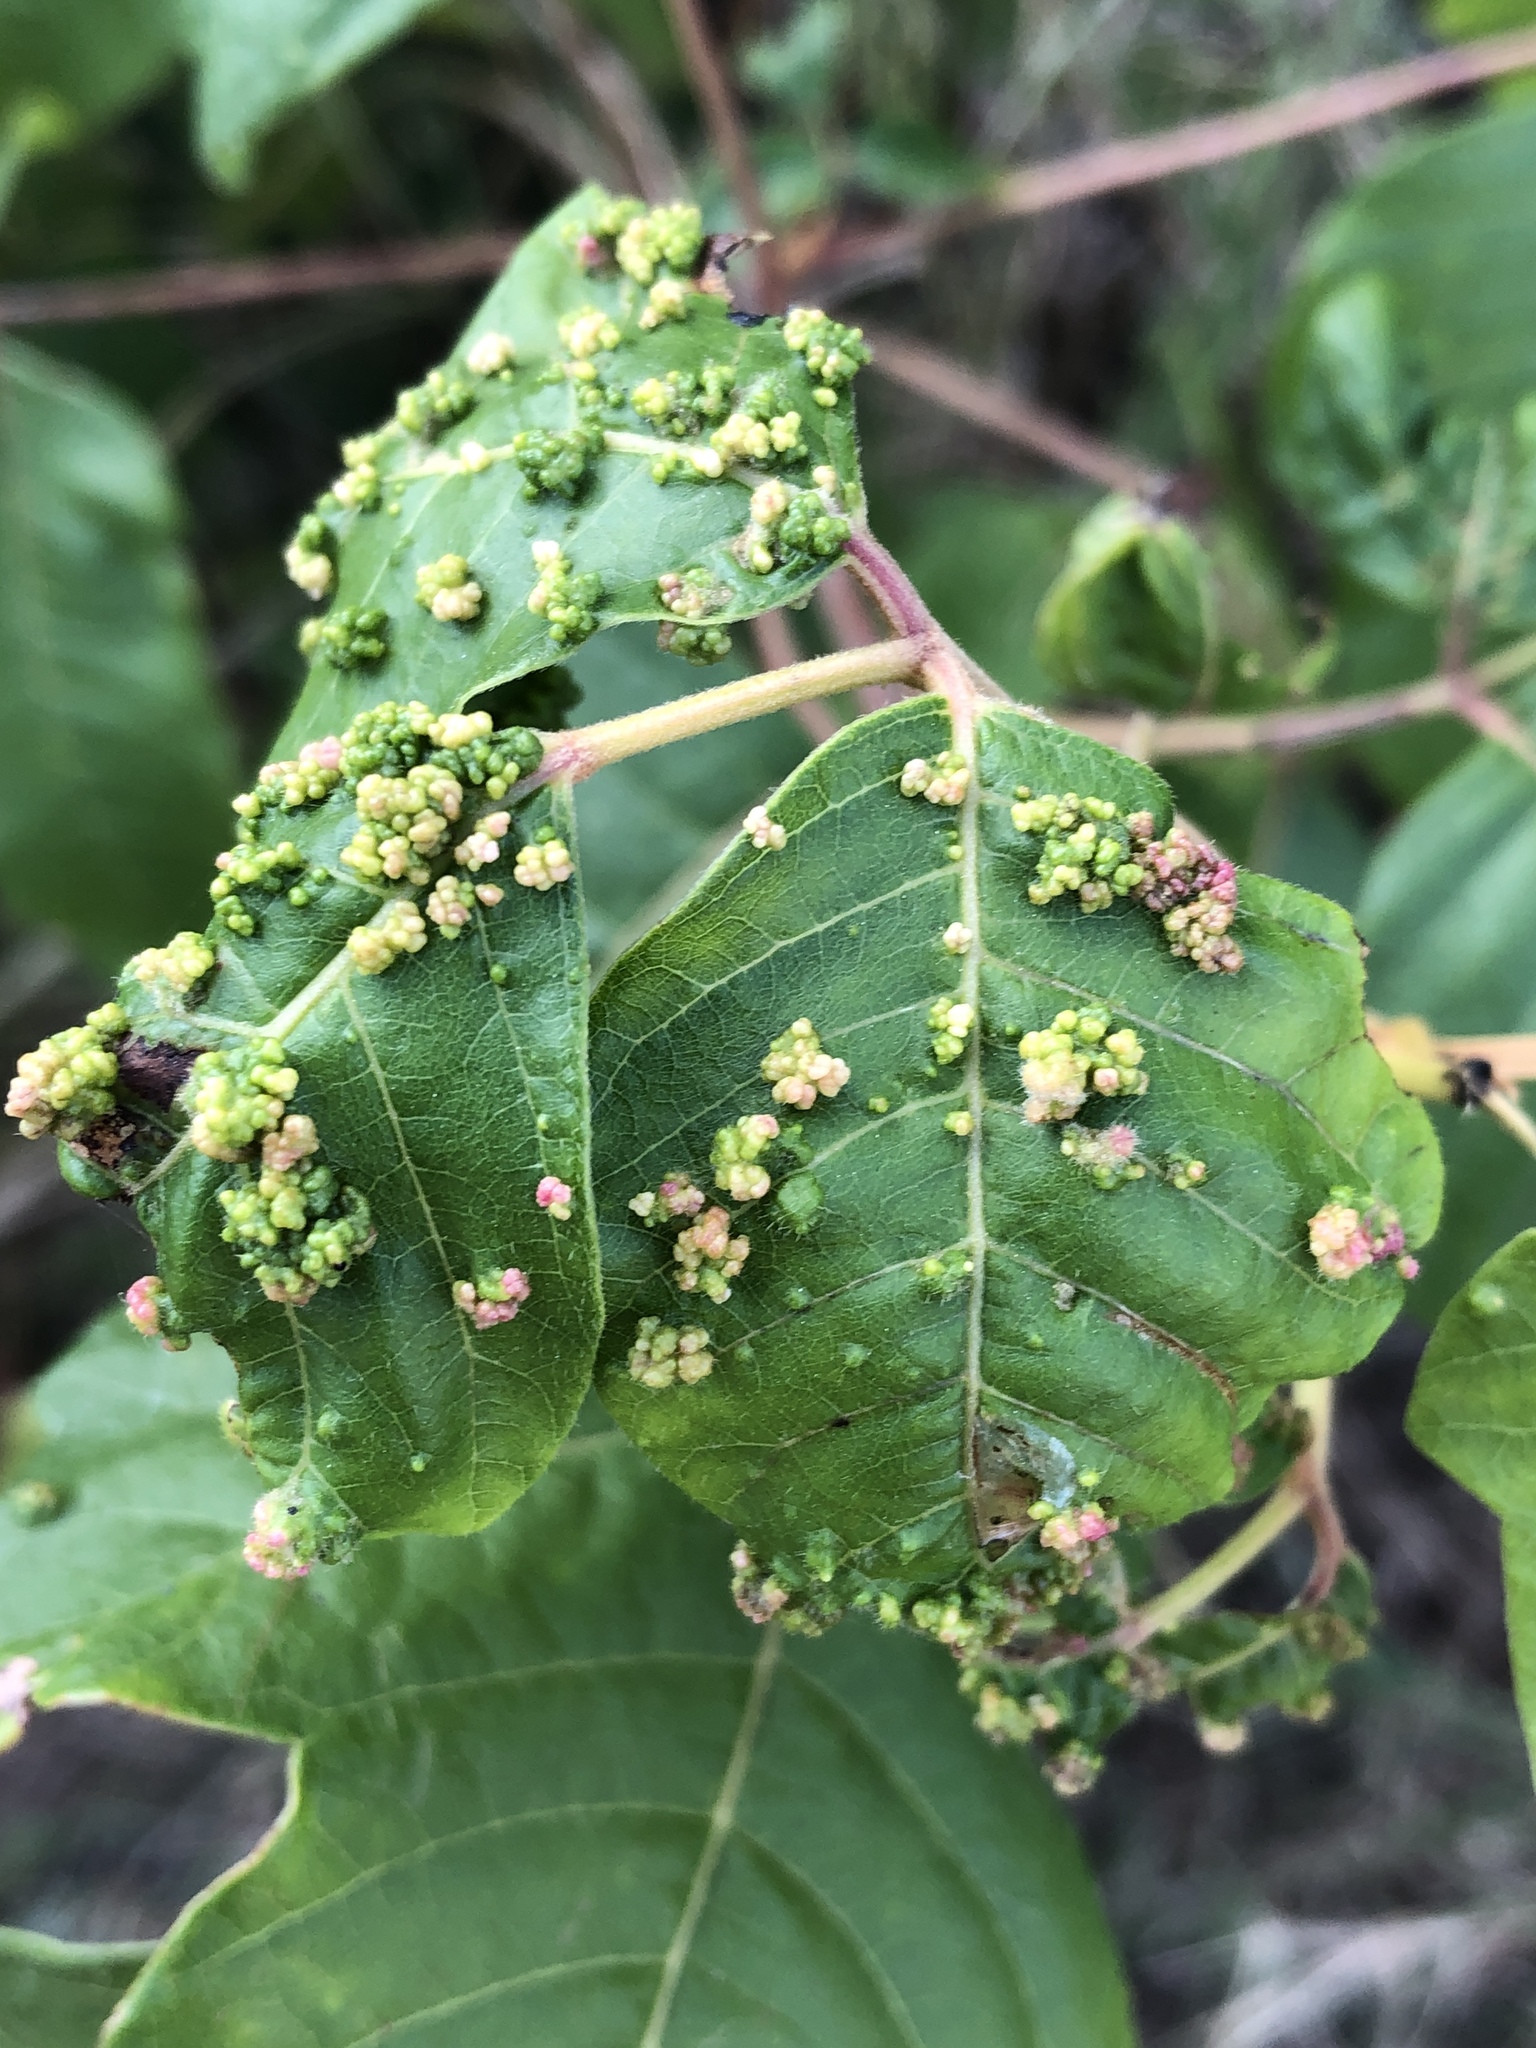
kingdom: Animalia
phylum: Arthropoda
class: Arachnida
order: Trombidiformes
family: Eriophyidae
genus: Aculops
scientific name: Aculops
